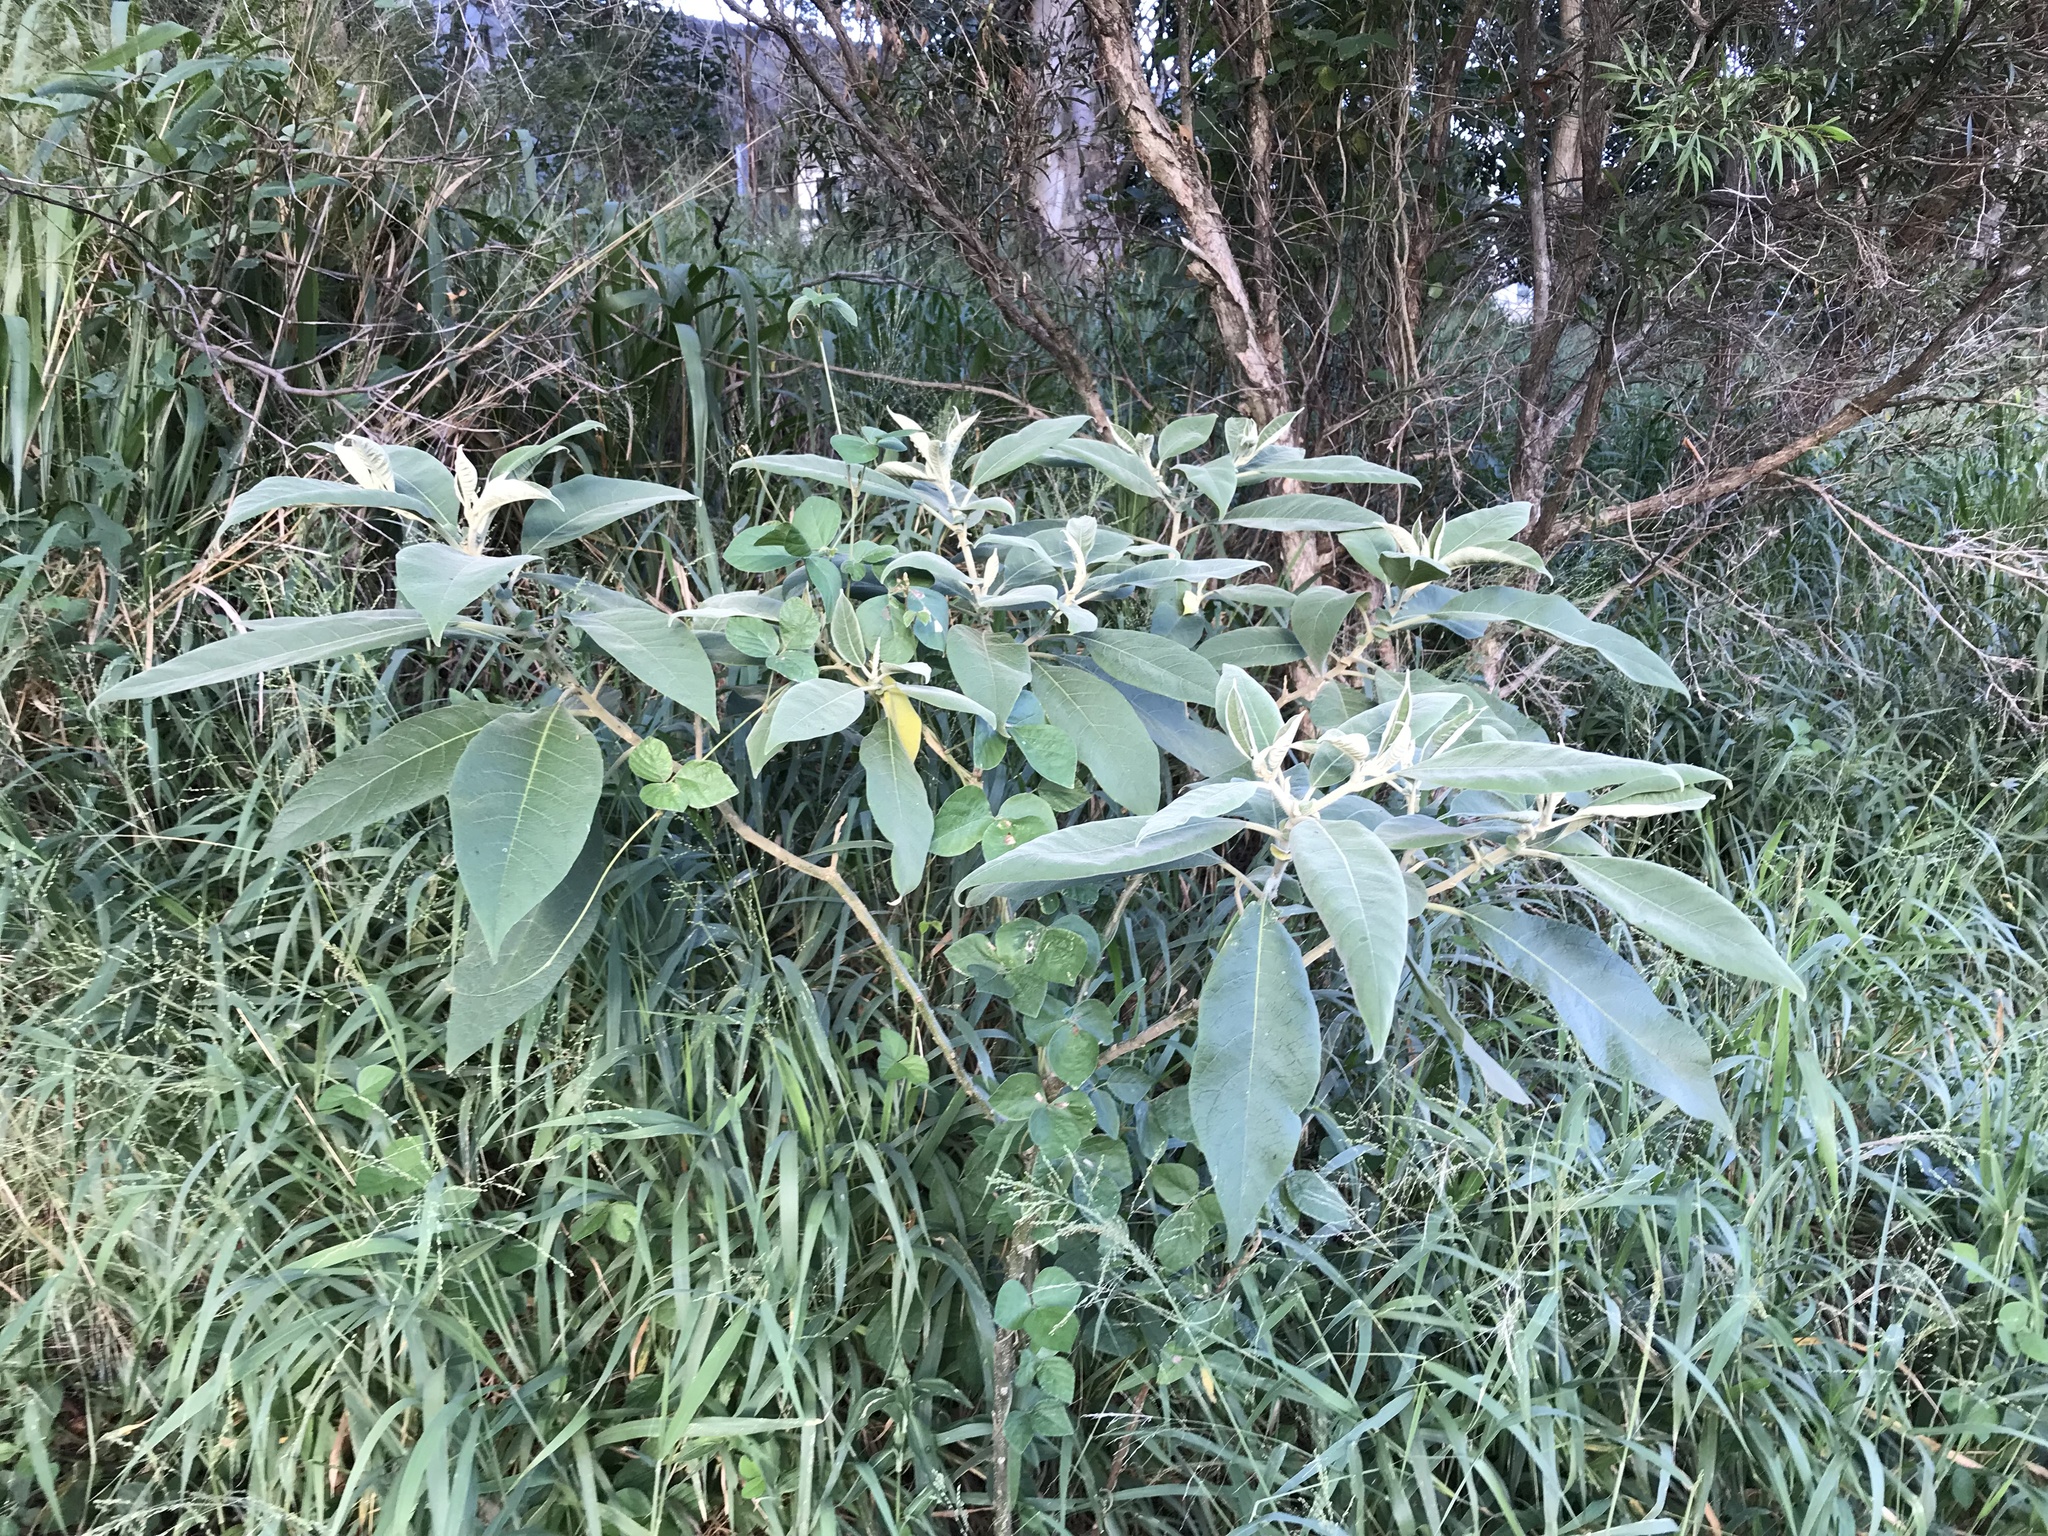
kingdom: Plantae
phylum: Tracheophyta
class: Magnoliopsida
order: Solanales
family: Solanaceae
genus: Solanum
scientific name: Solanum mauritianum
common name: Earleaf nightshade
